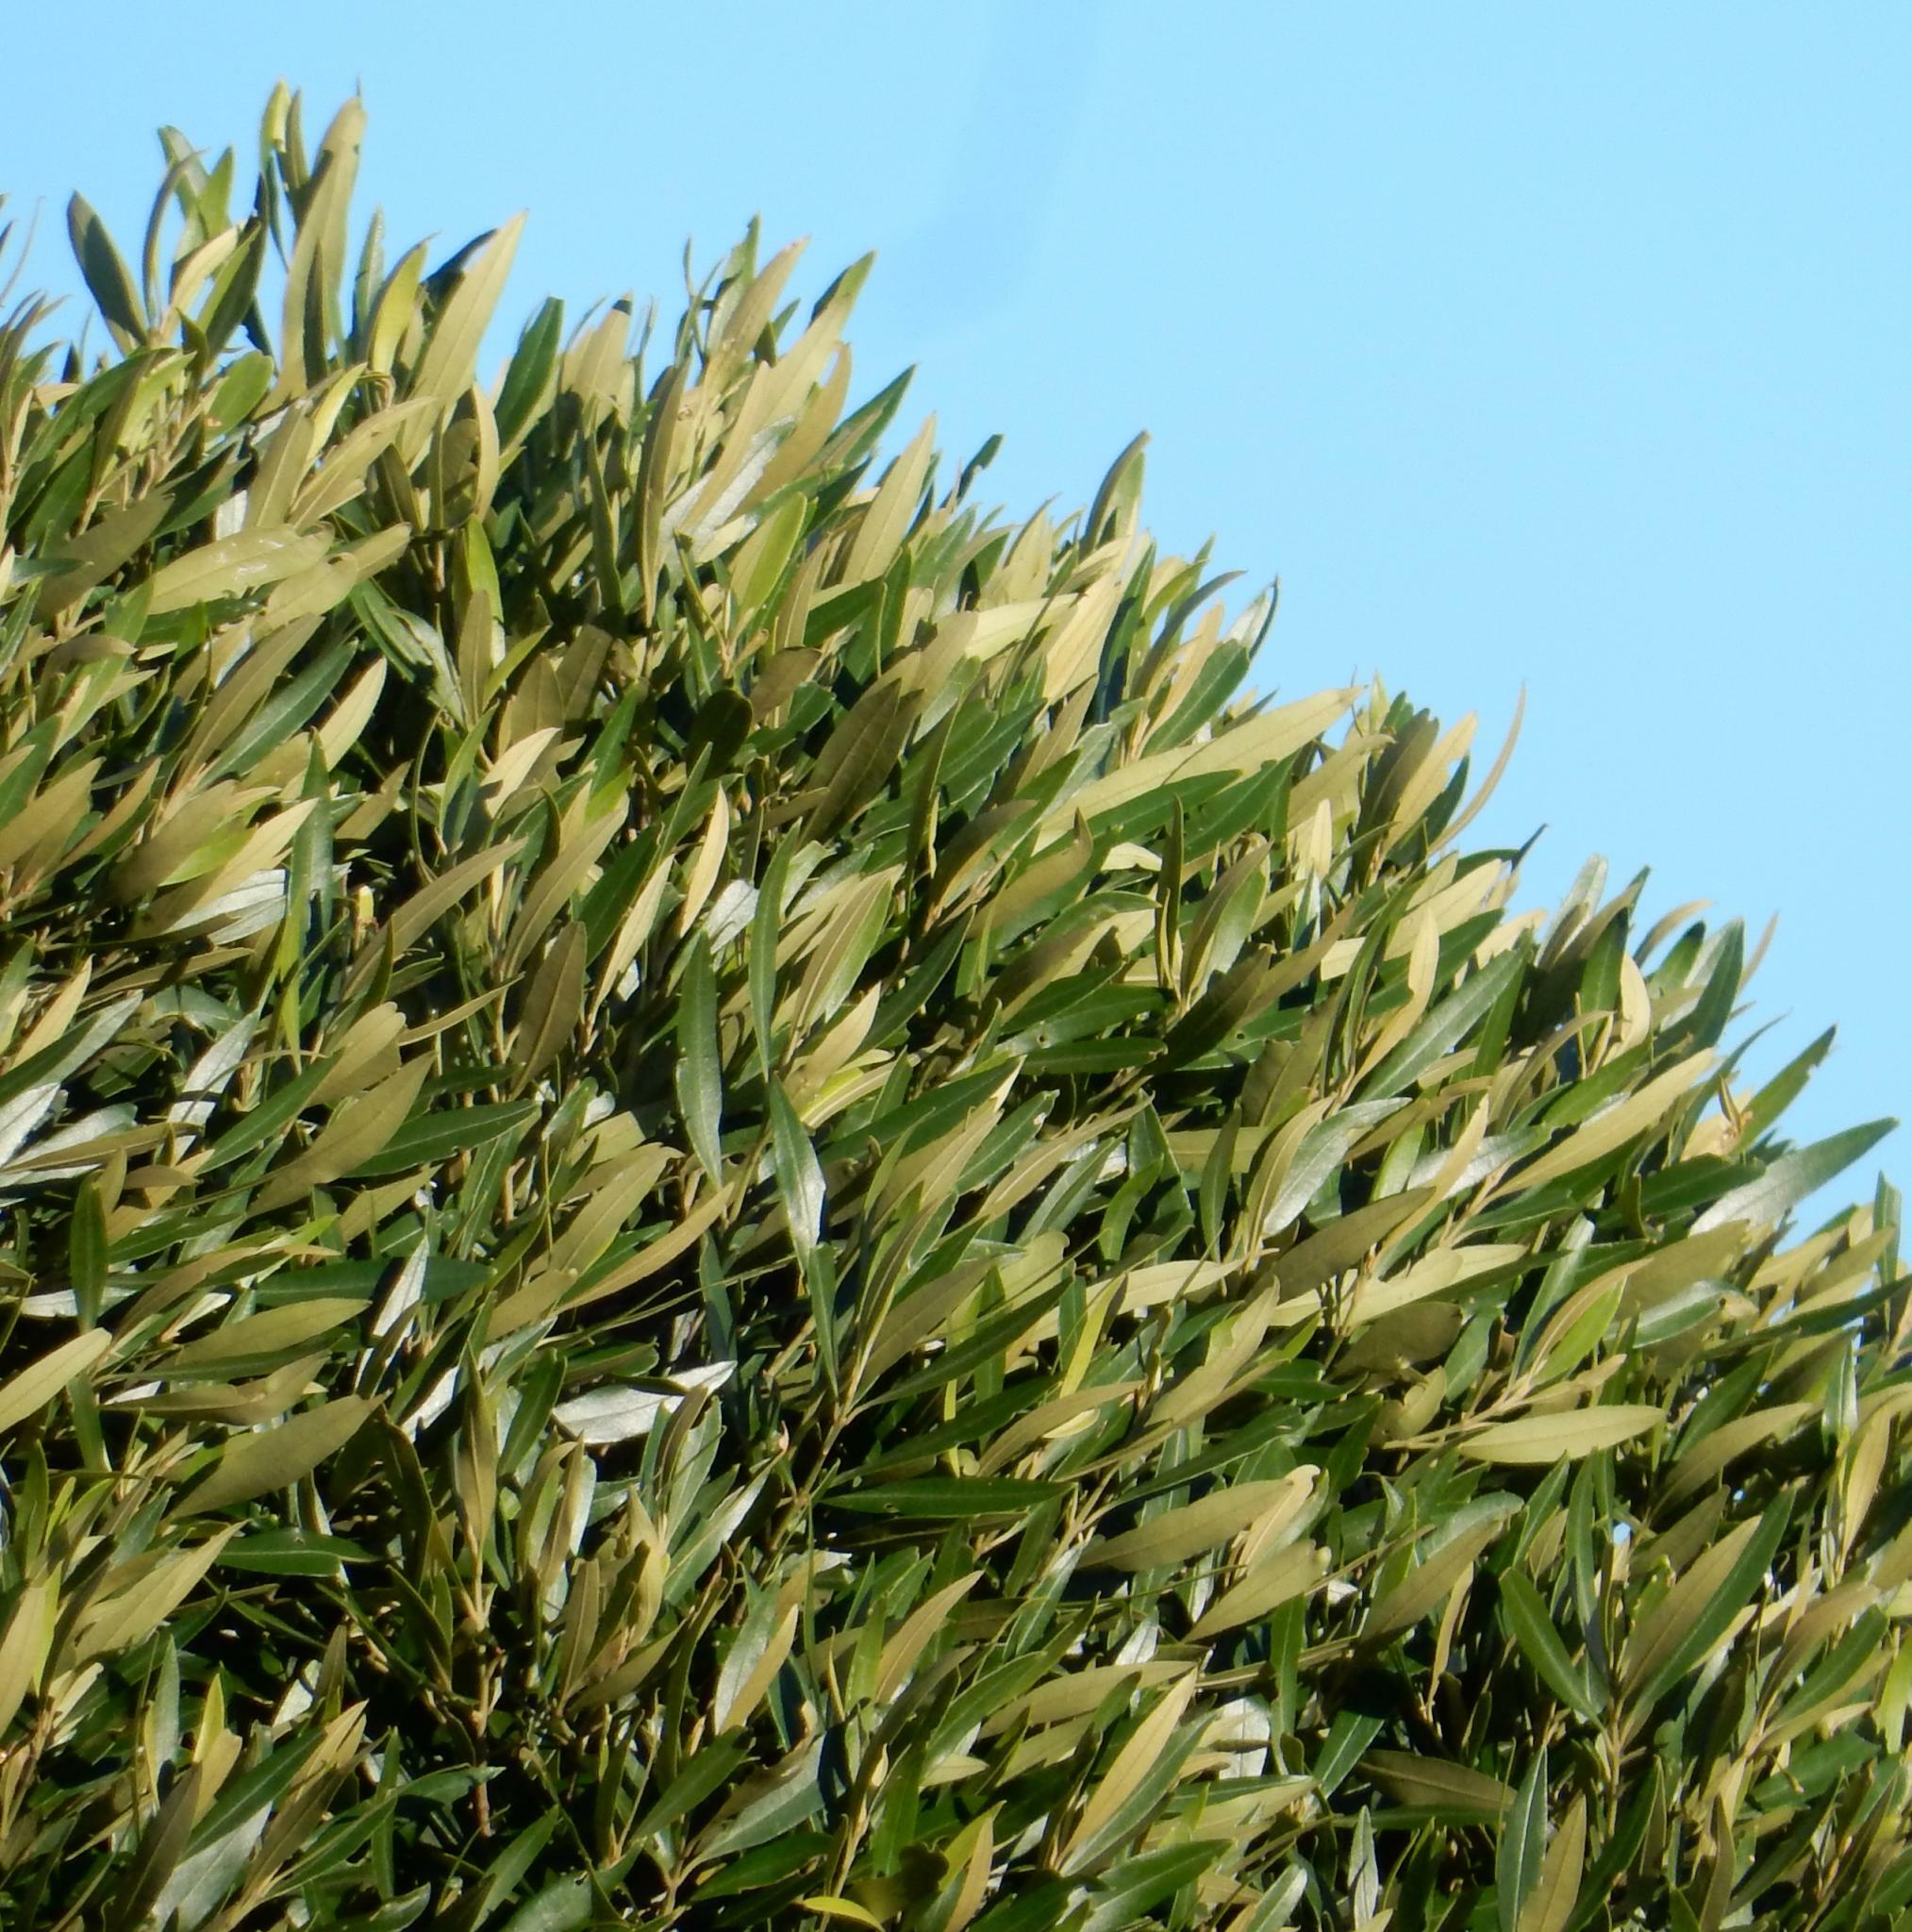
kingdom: Plantae
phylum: Tracheophyta
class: Magnoliopsida
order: Lamiales
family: Oleaceae
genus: Olea
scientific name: Olea europaea
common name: Olive
